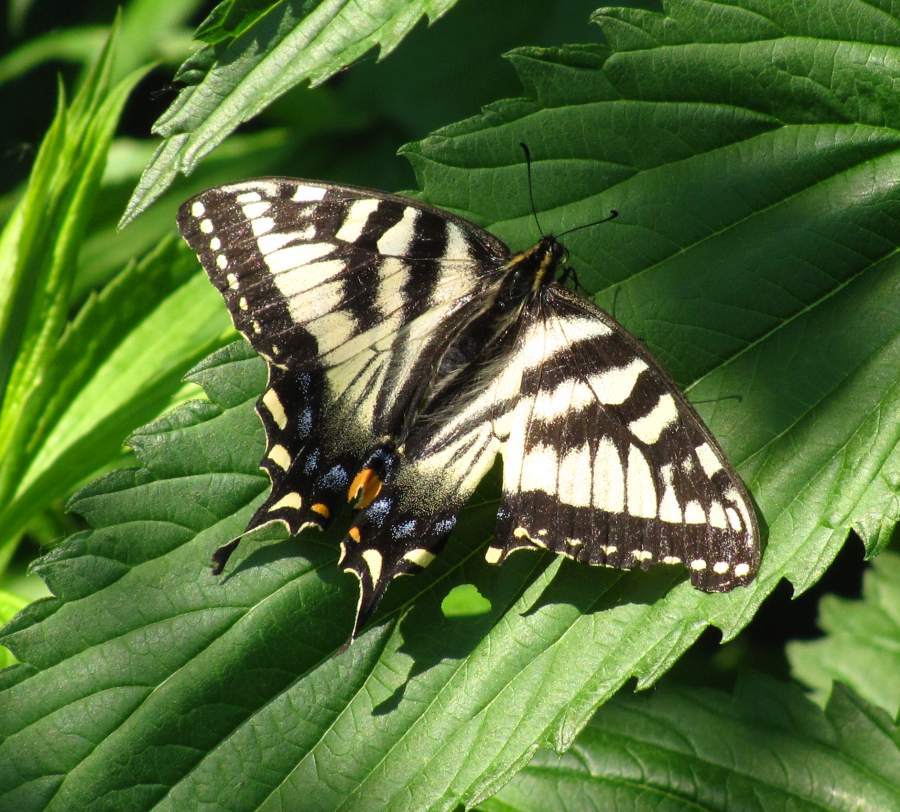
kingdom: Animalia
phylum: Arthropoda
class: Insecta
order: Lepidoptera
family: Papilionidae
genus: Papilio
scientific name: Papilio canadensis
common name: Canadian tiger swallowtail
